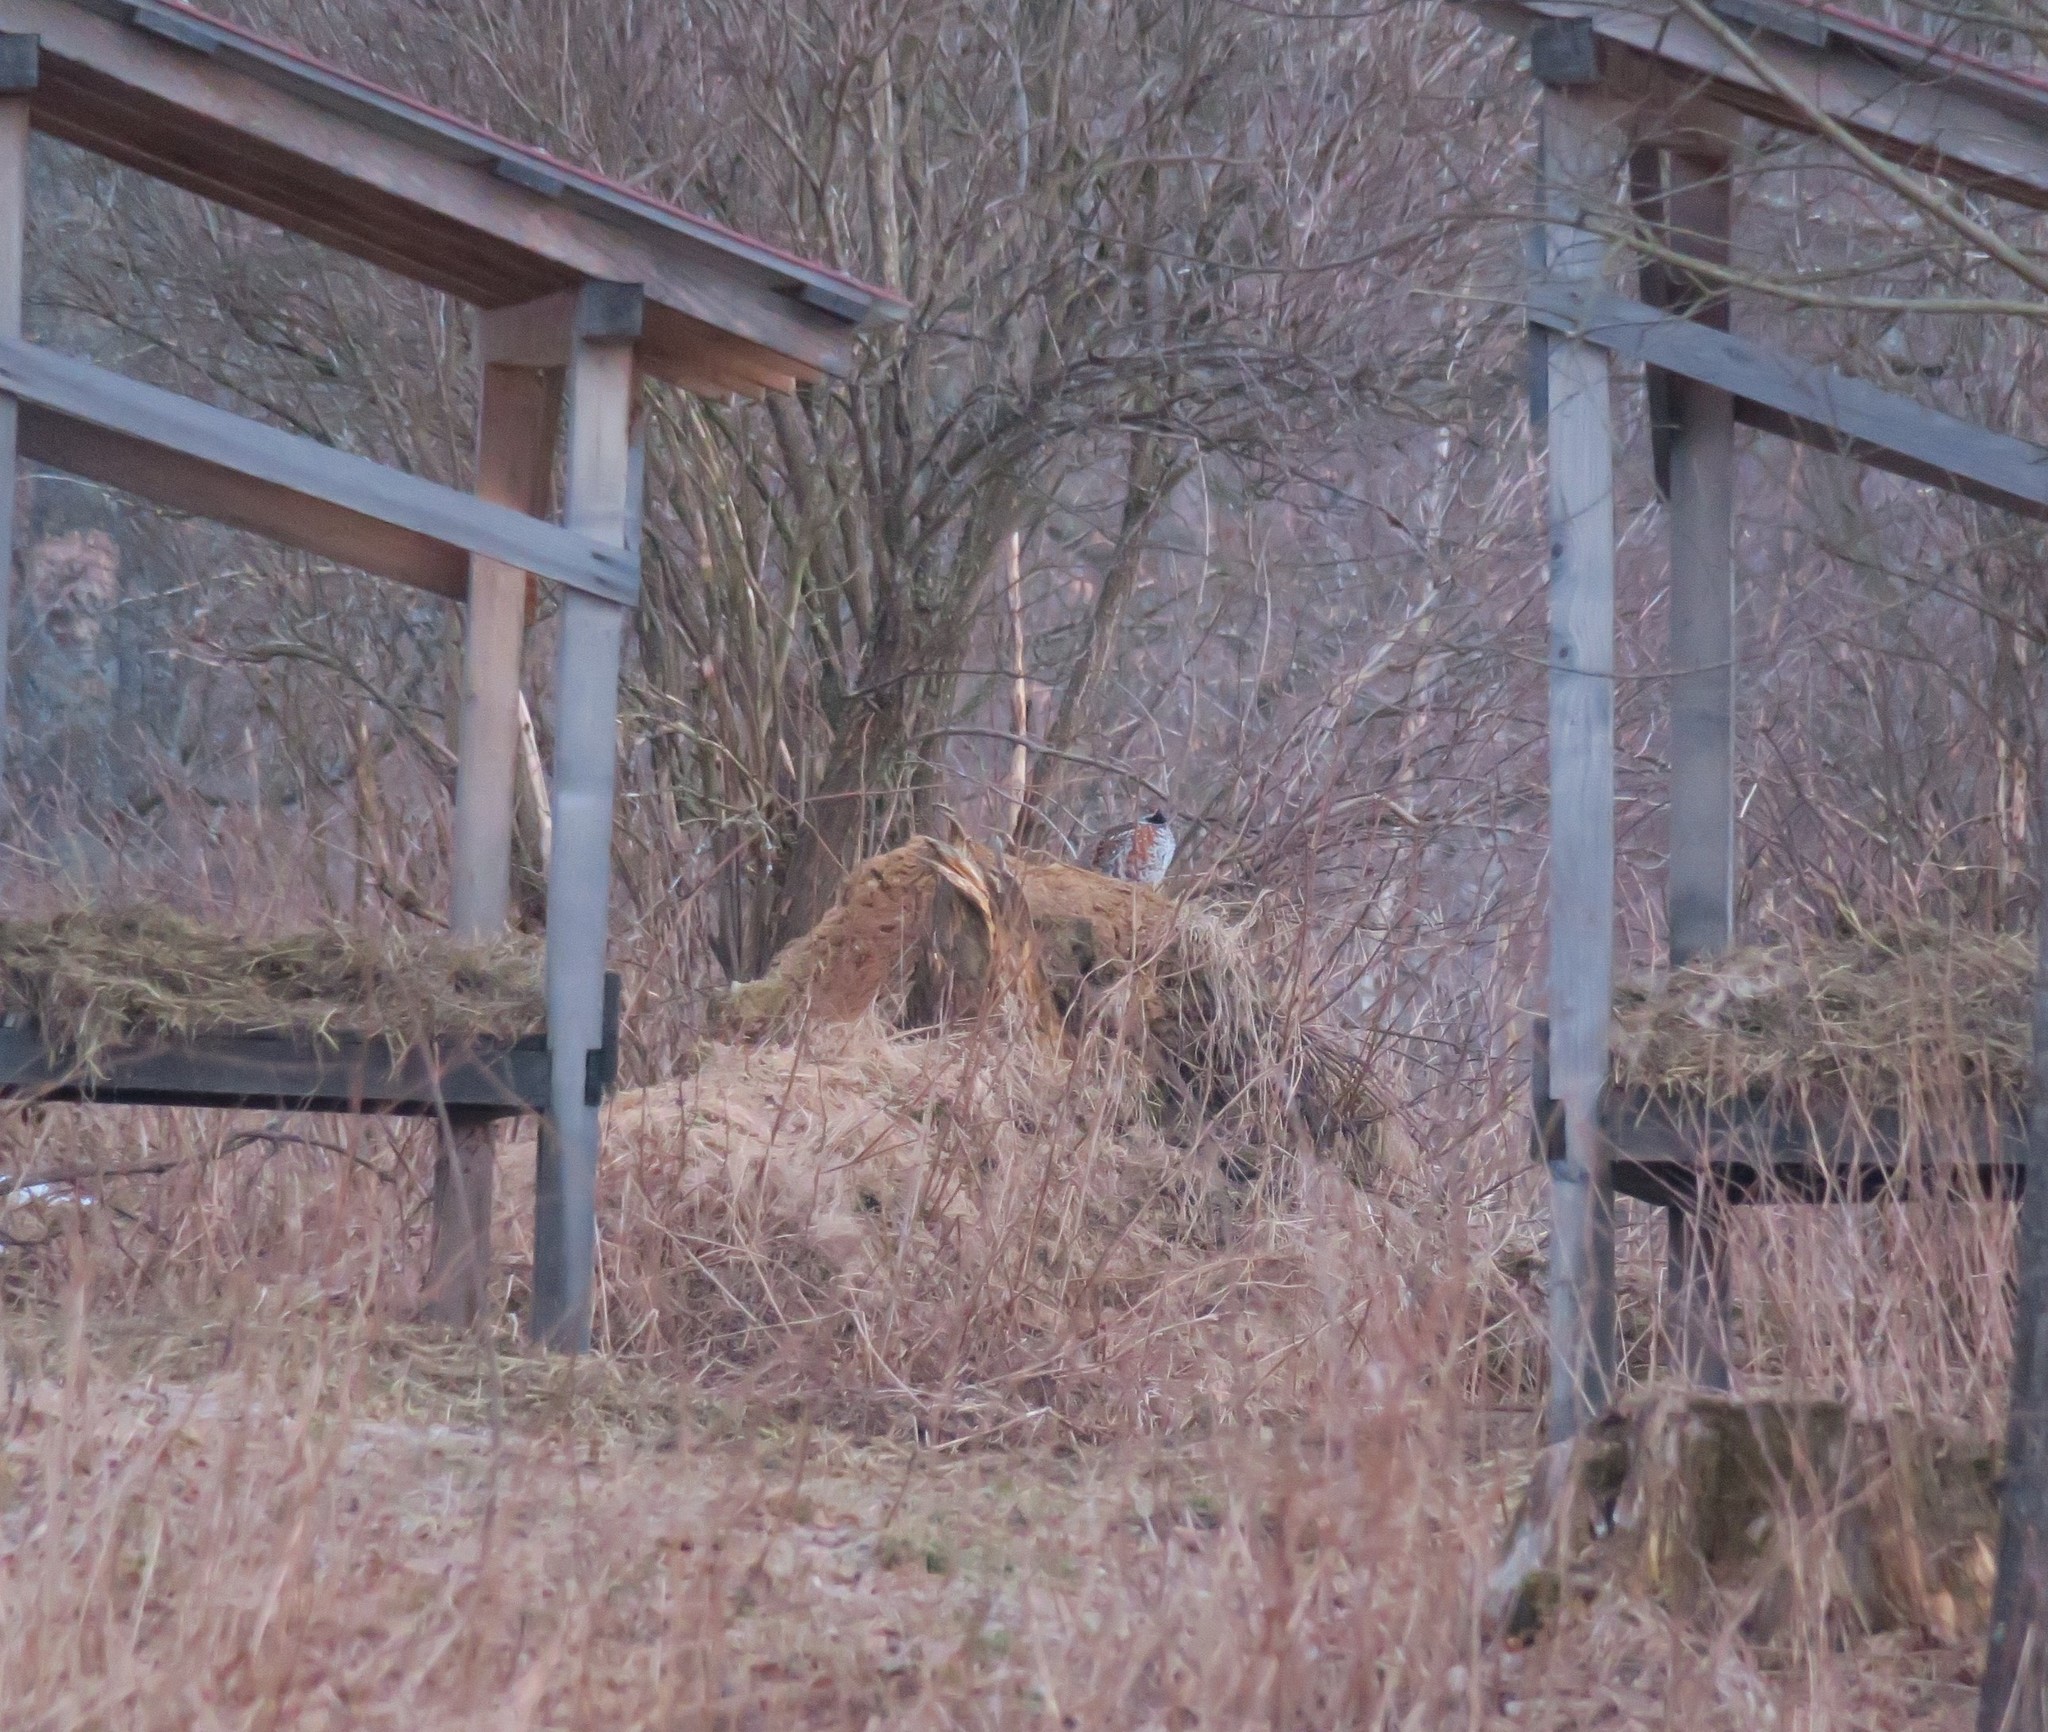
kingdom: Animalia
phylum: Chordata
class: Aves
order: Galliformes
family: Phasianidae
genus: Tetrastes
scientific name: Tetrastes bonasia
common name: Hazel grouse
